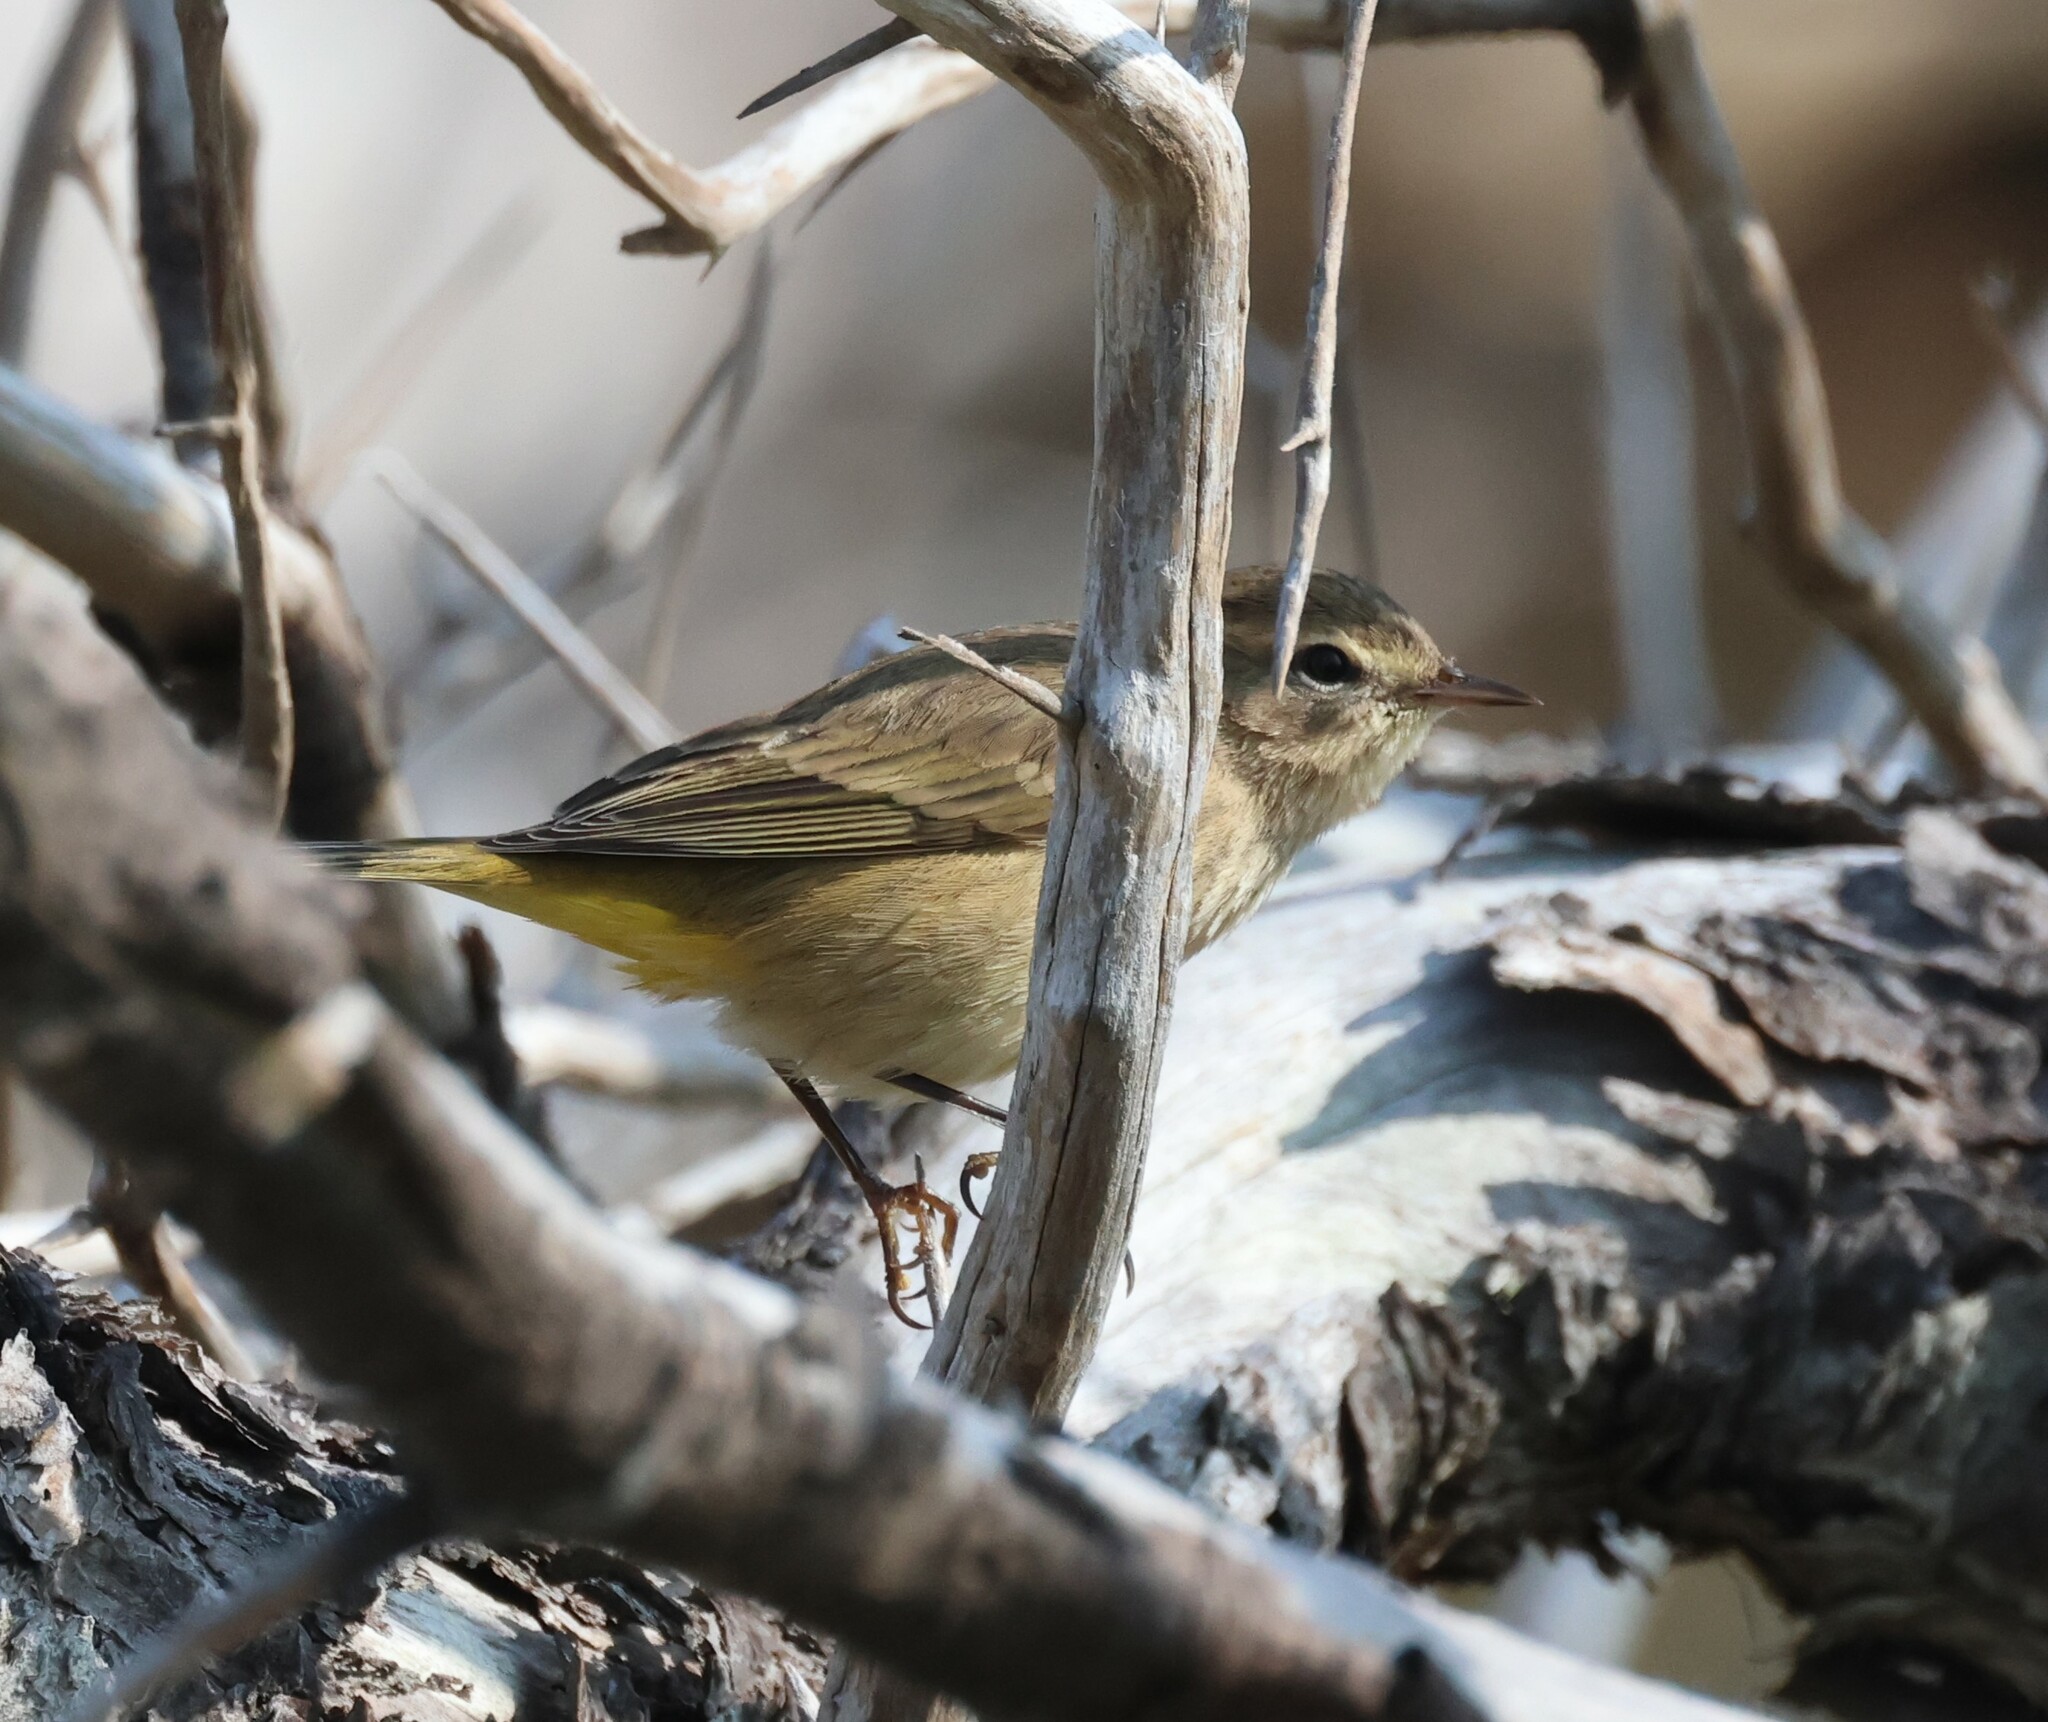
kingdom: Animalia
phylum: Chordata
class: Aves
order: Passeriformes
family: Parulidae
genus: Setophaga
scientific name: Setophaga palmarum
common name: Palm warbler
